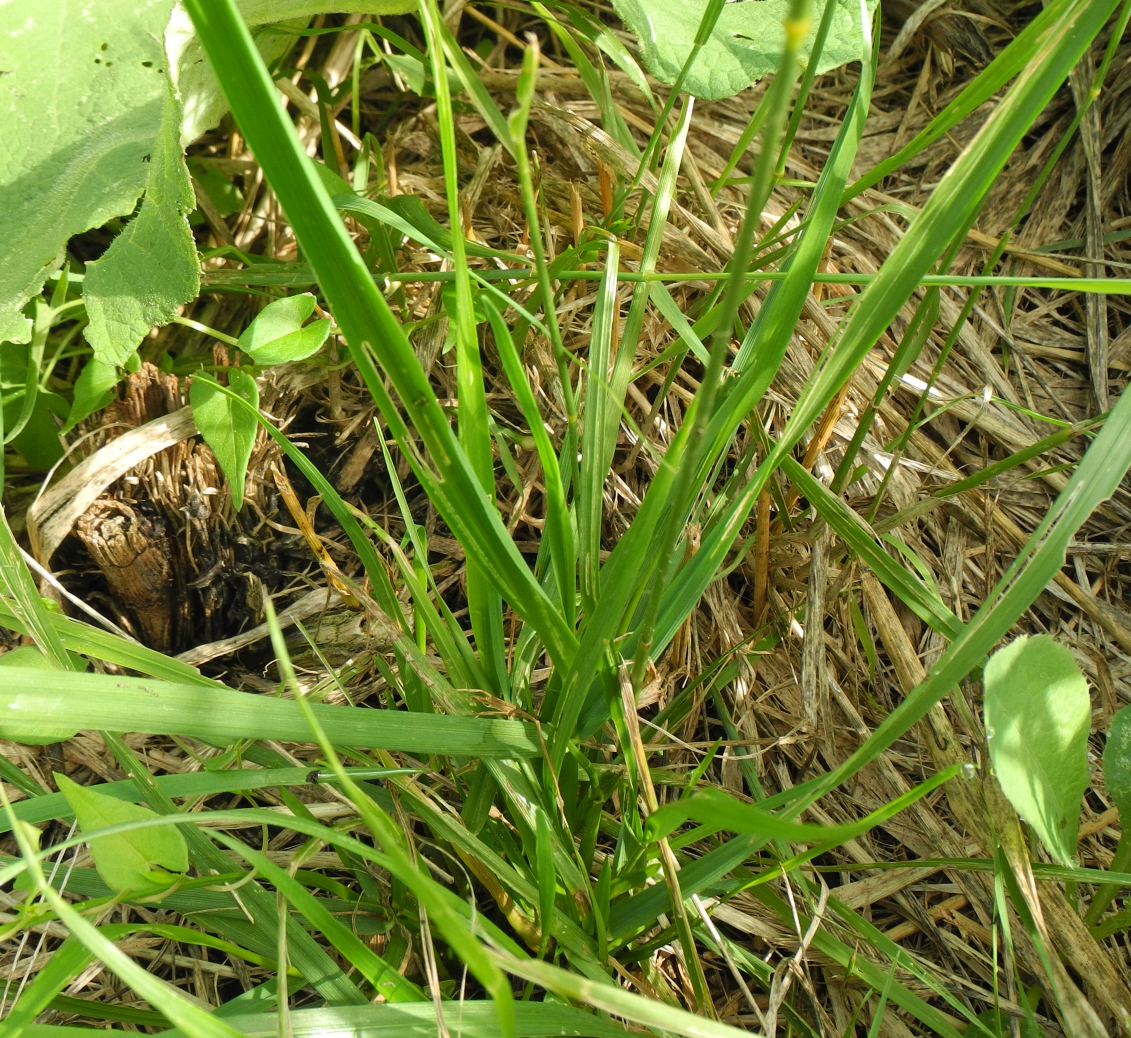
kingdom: Plantae
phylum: Tracheophyta
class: Liliopsida
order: Poales
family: Poaceae
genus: Agropyron
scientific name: Agropyron cristatum
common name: Crested wheatgrass
